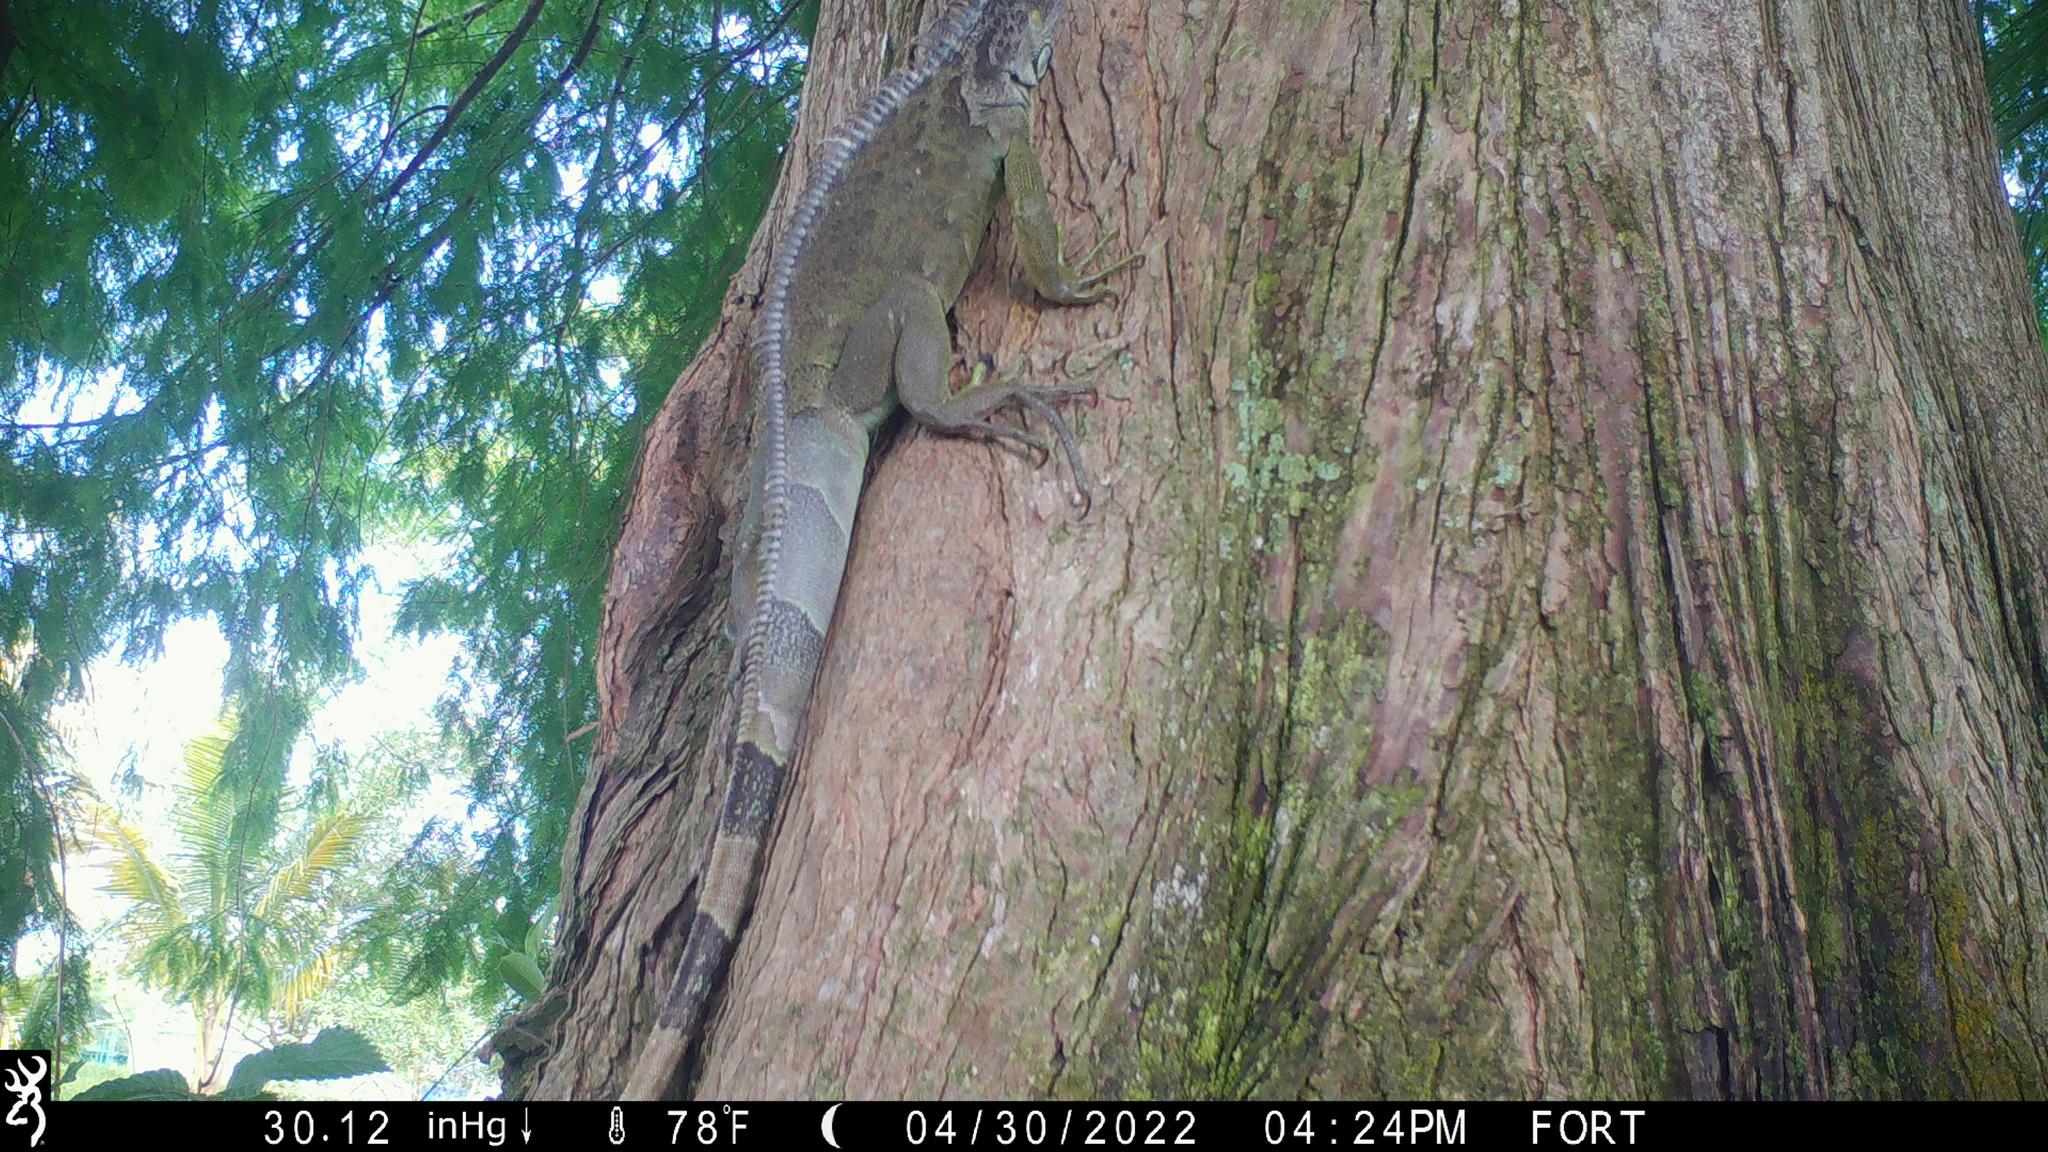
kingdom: Animalia
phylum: Chordata
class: Squamata
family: Iguanidae
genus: Iguana
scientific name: Iguana iguana
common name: Green iguana
